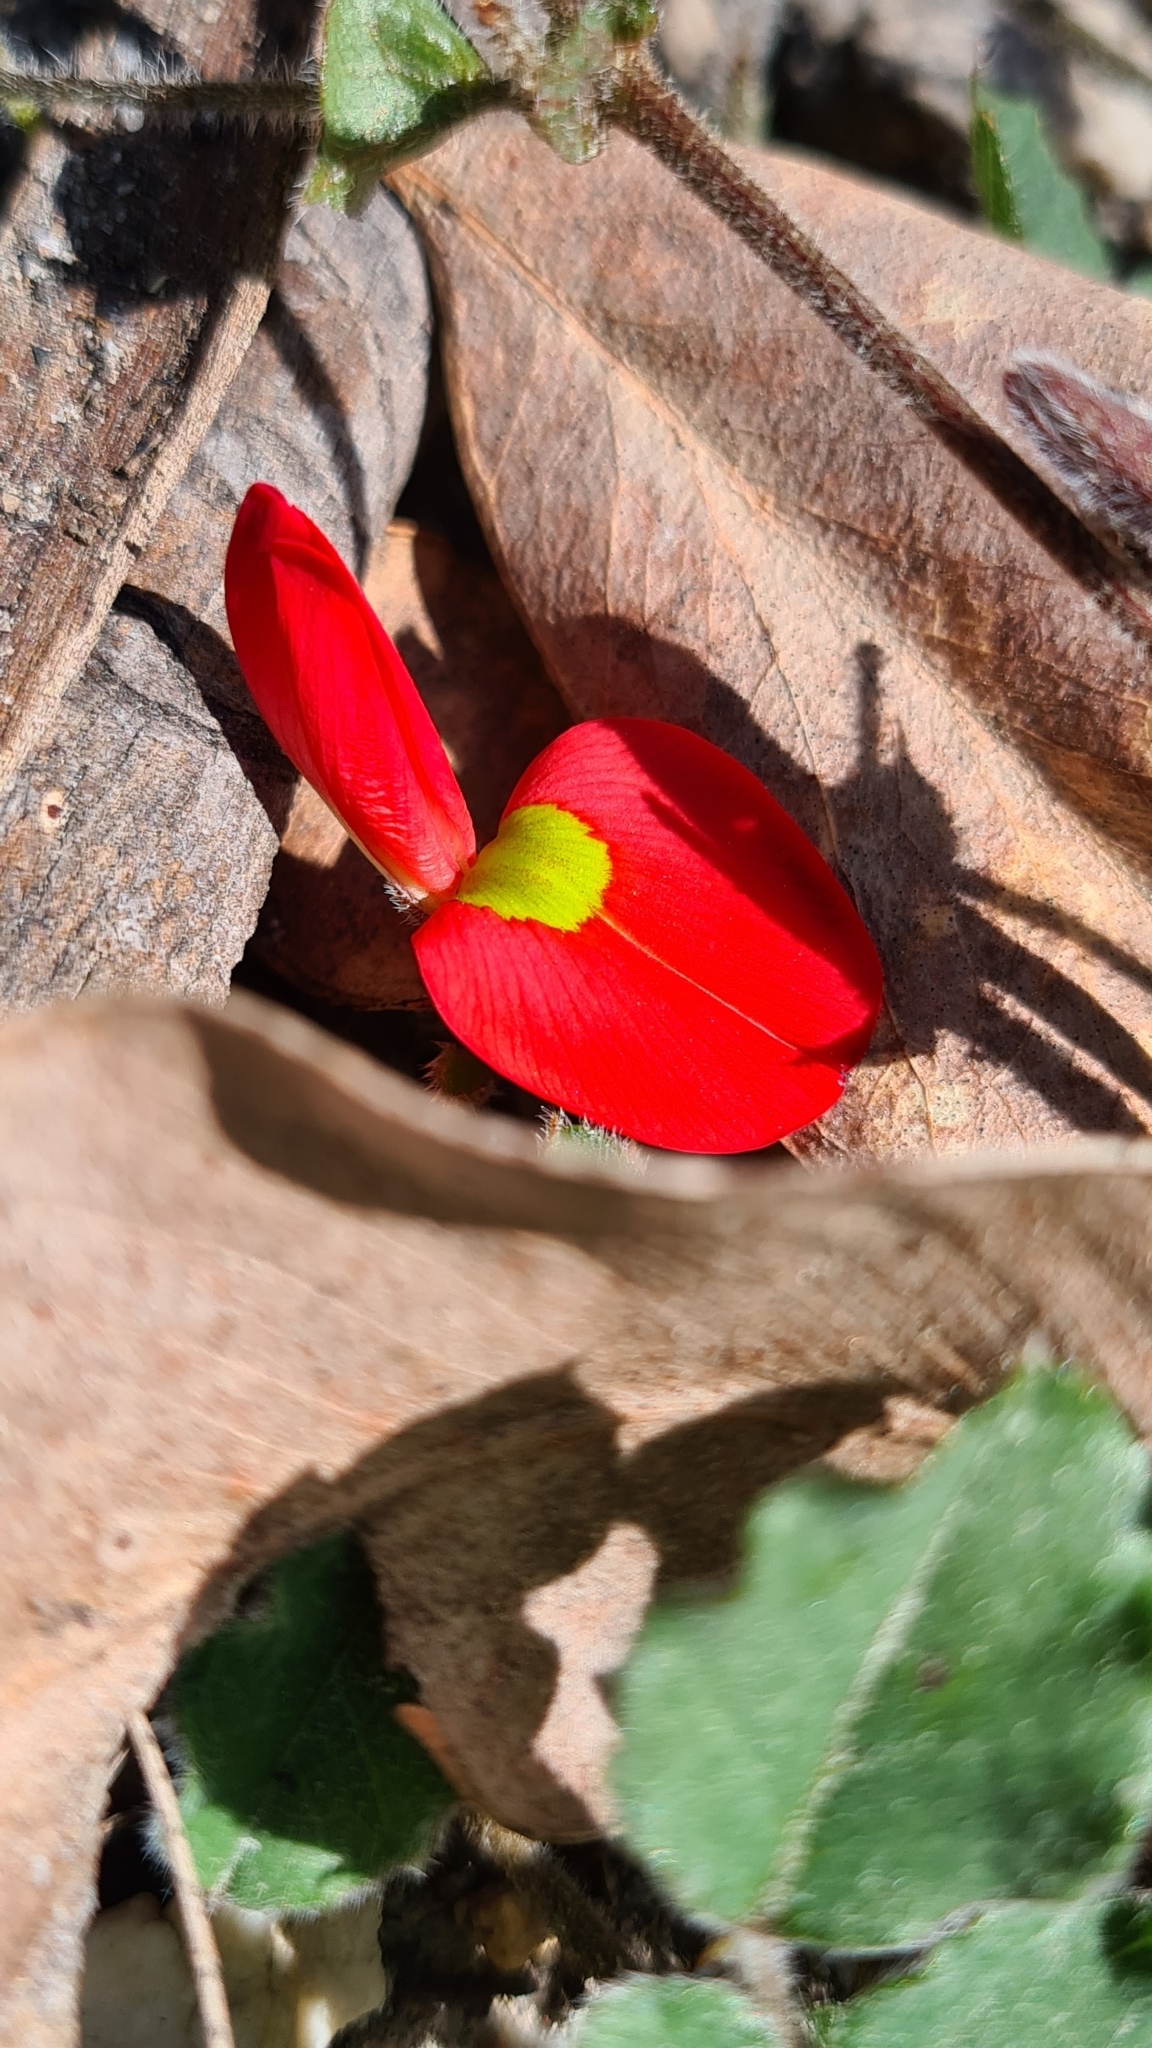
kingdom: Plantae
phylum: Tracheophyta
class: Magnoliopsida
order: Fabales
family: Fabaceae
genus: Kennedia
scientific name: Kennedia prostrata
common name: Running-postman
